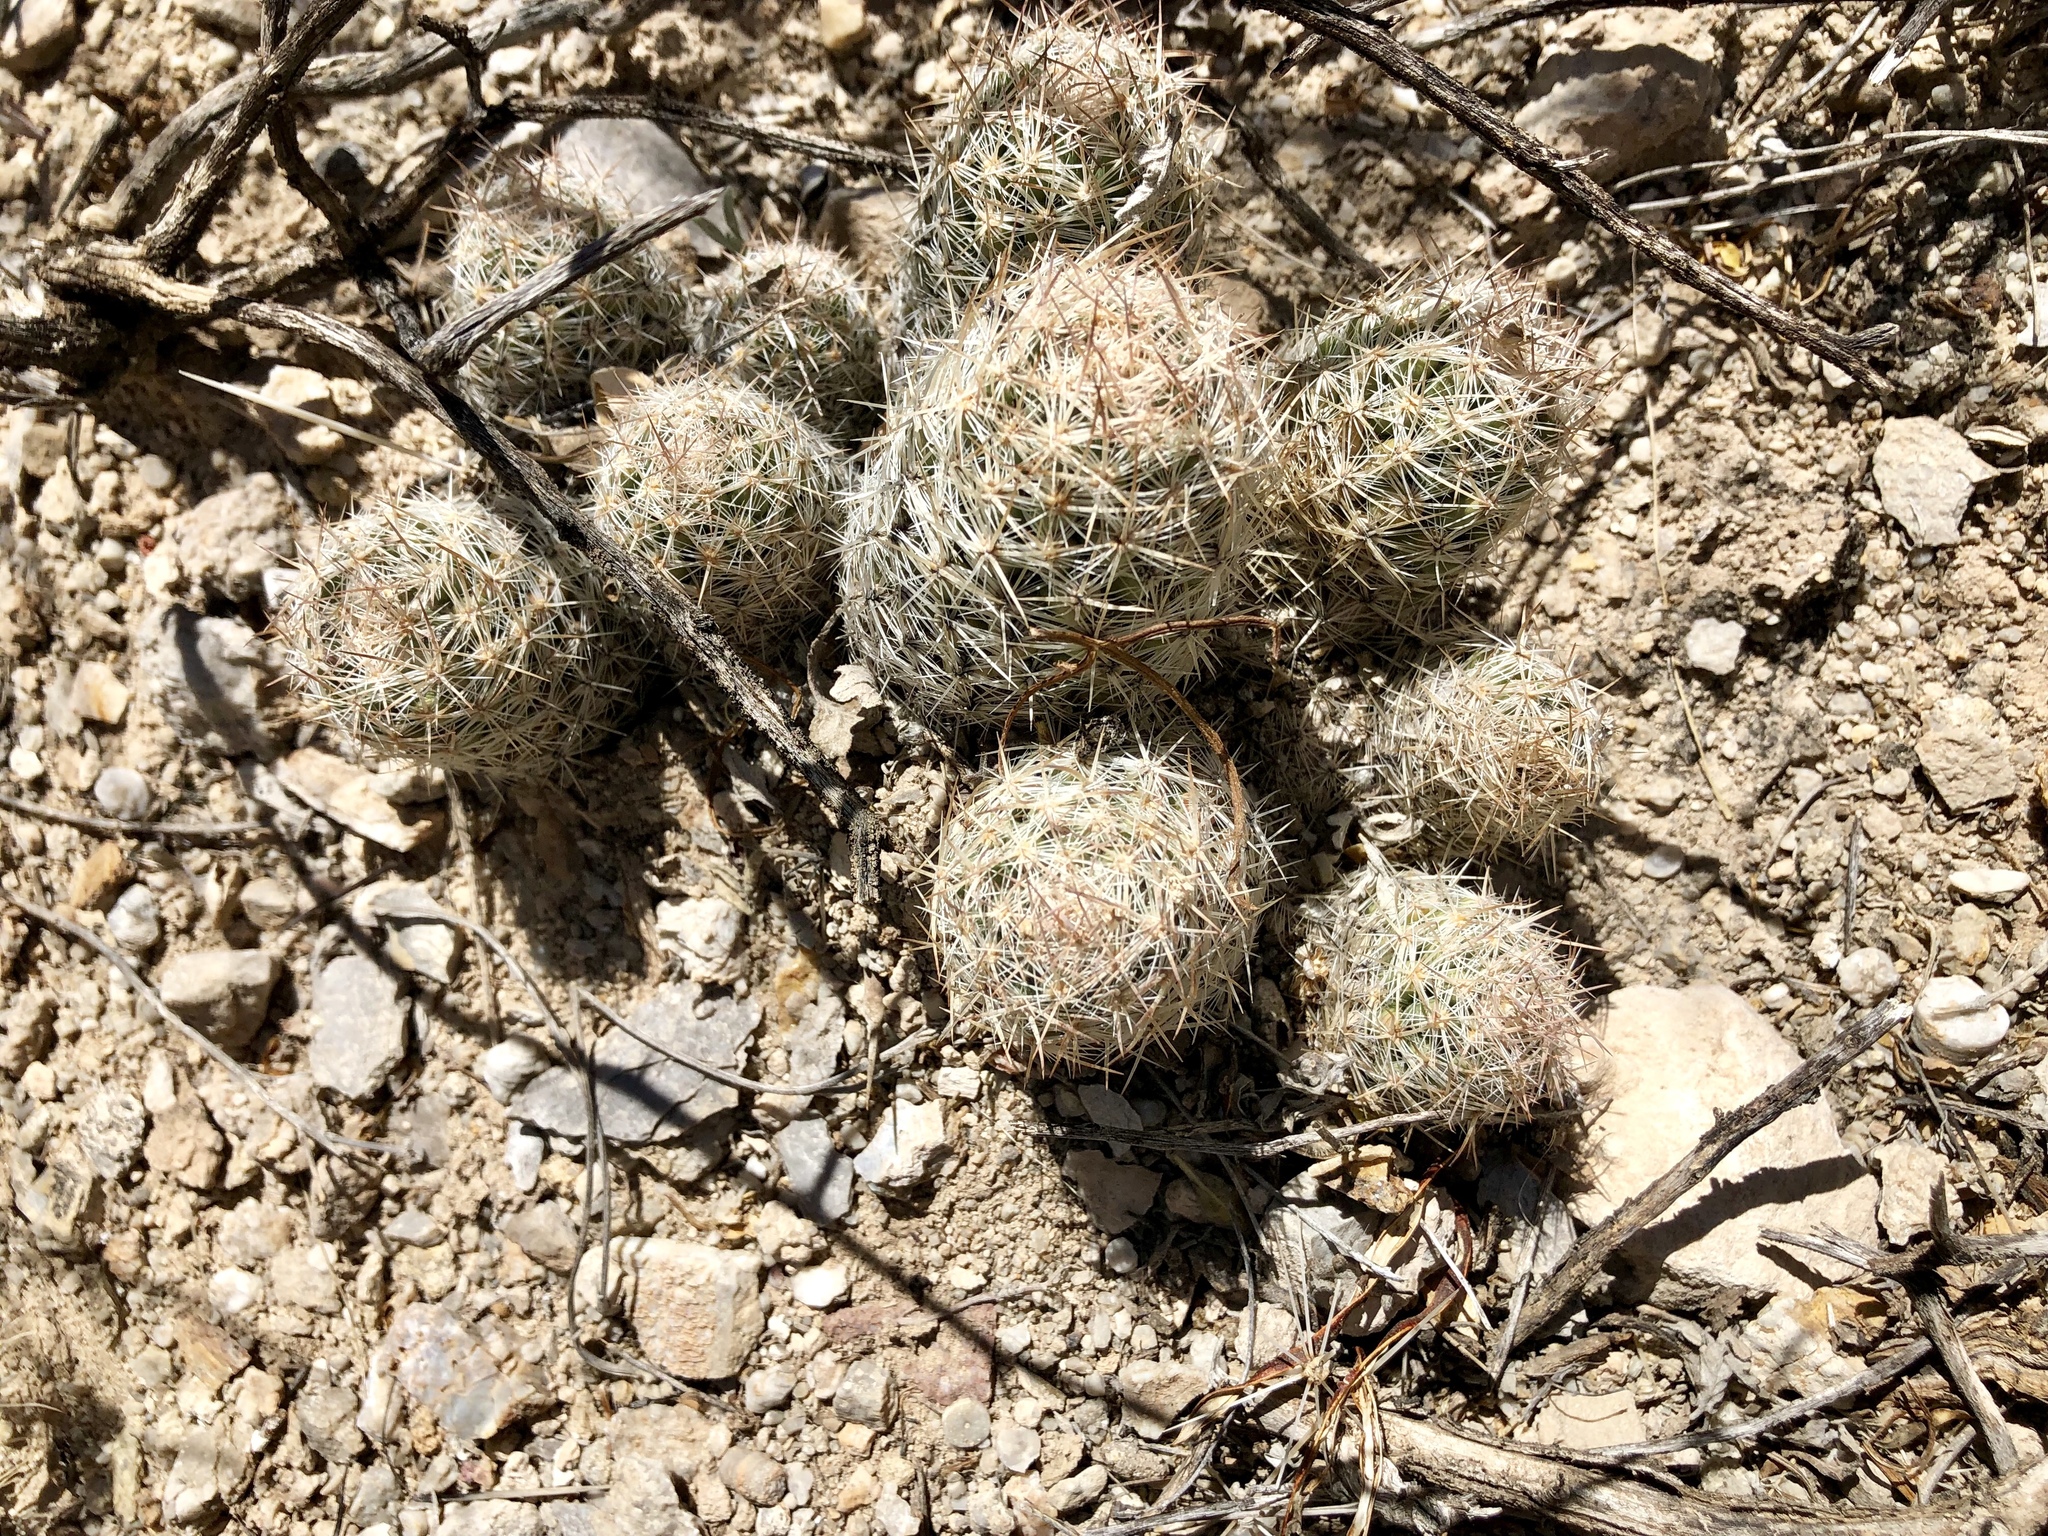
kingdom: Plantae
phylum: Tracheophyta
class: Magnoliopsida
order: Caryophyllales
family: Cactaceae
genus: Pelecyphora
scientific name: Pelecyphora tuberculosa
